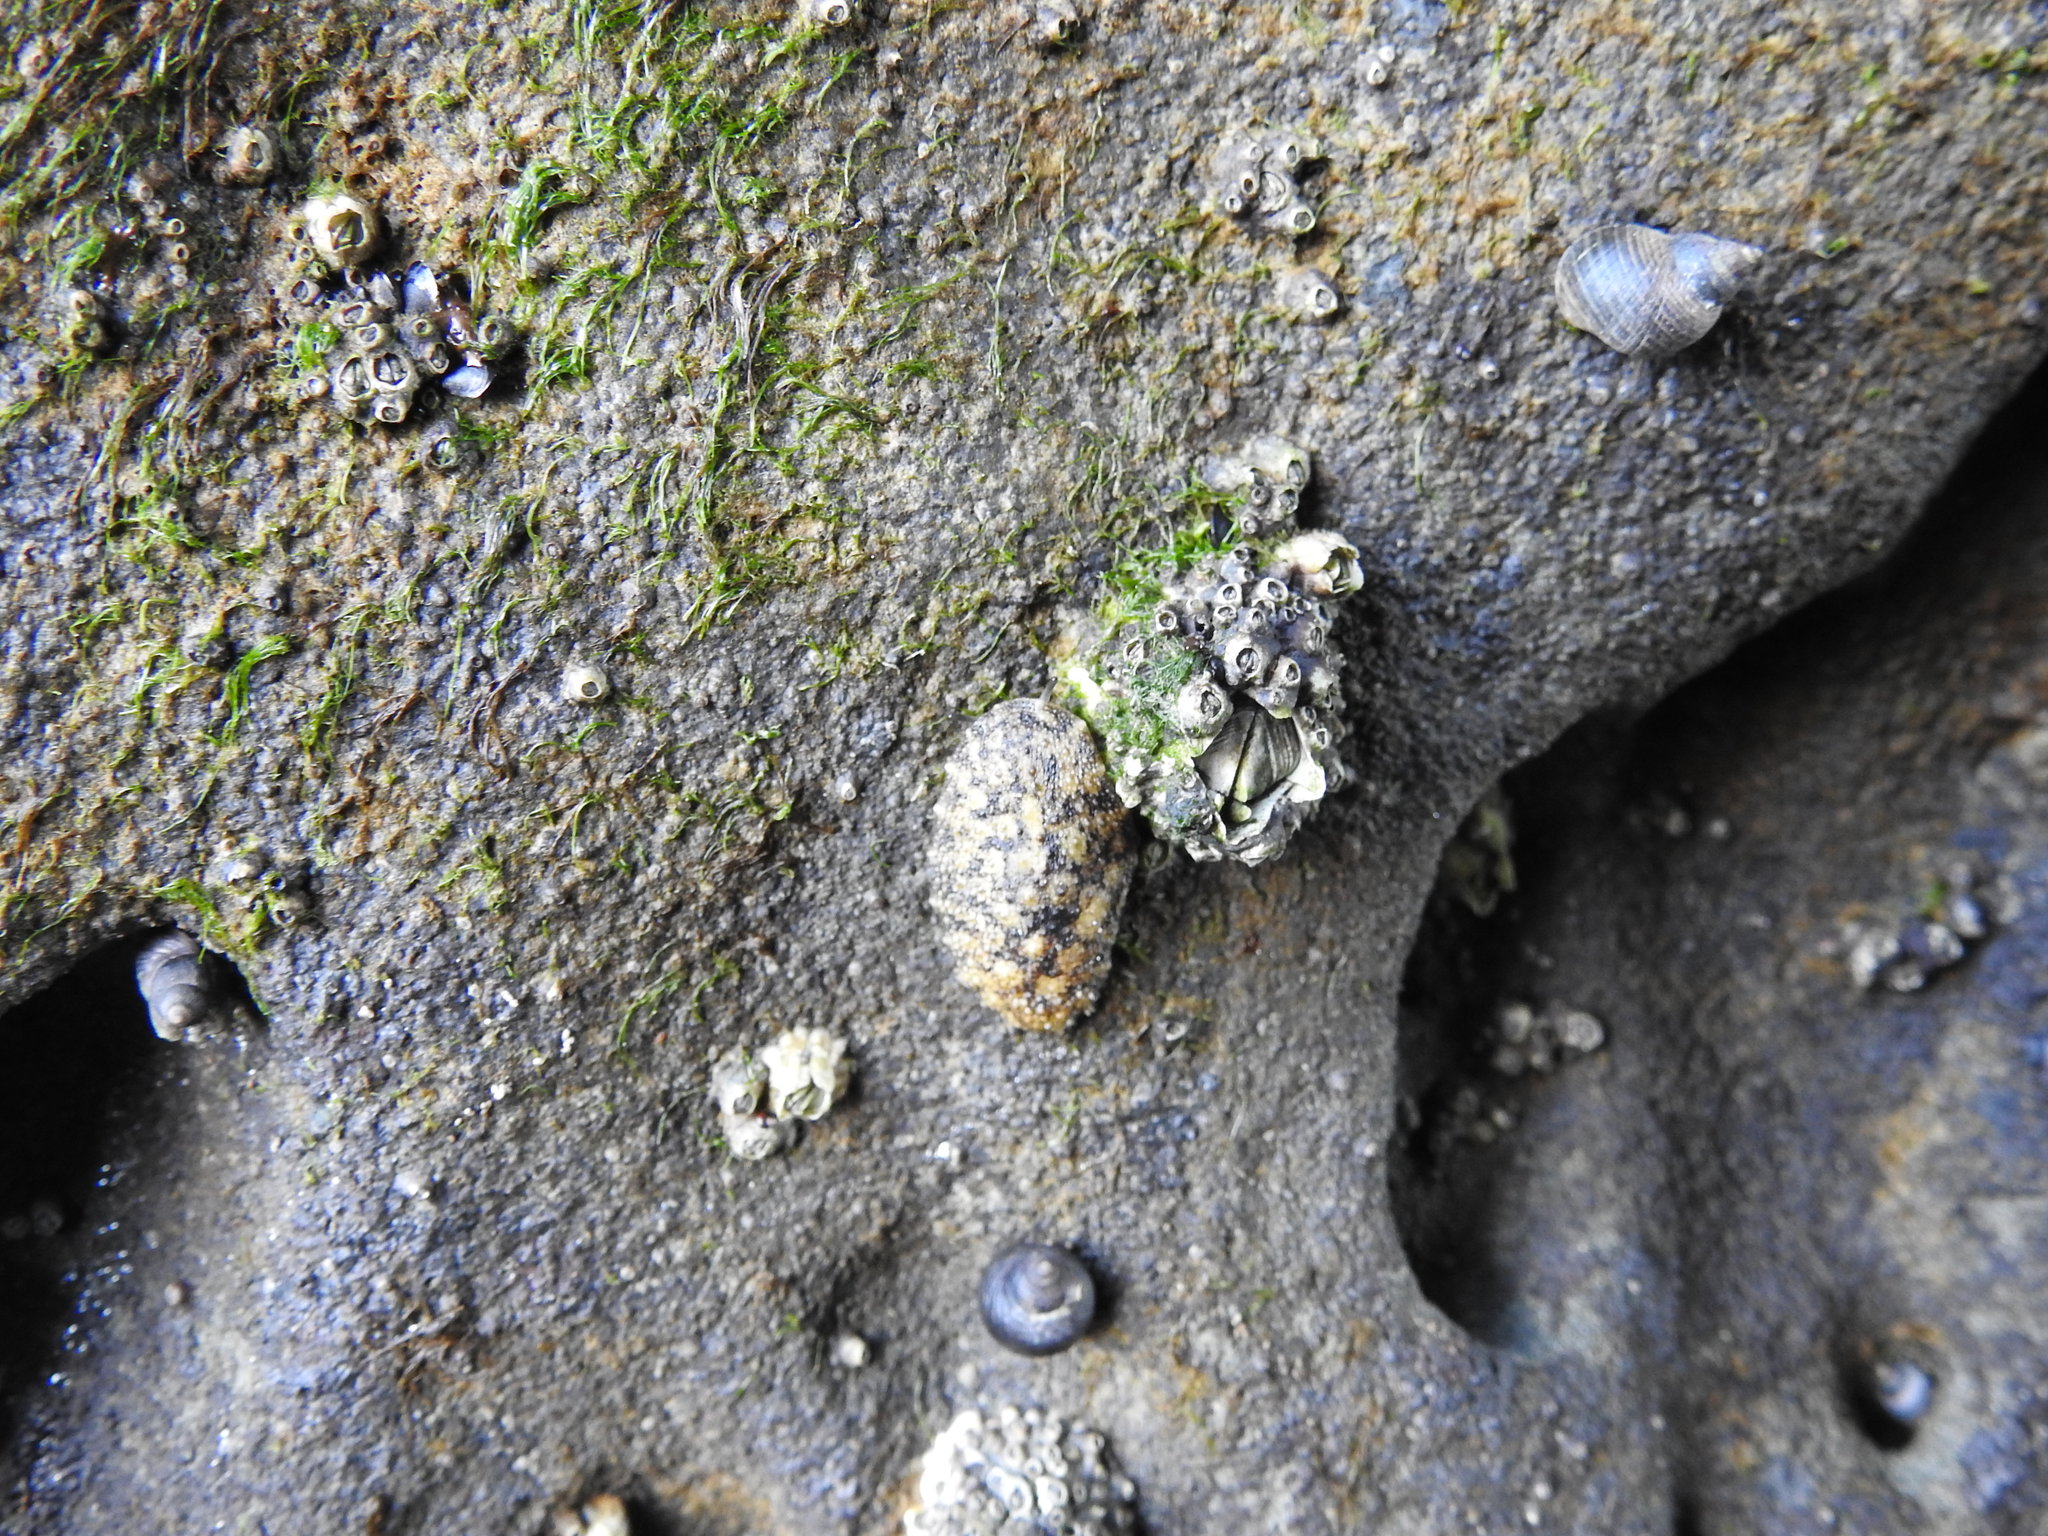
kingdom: Animalia
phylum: Arthropoda
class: Maxillopoda
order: Sessilia
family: Tetraclitidae
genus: Epopella
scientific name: Epopella plicata
